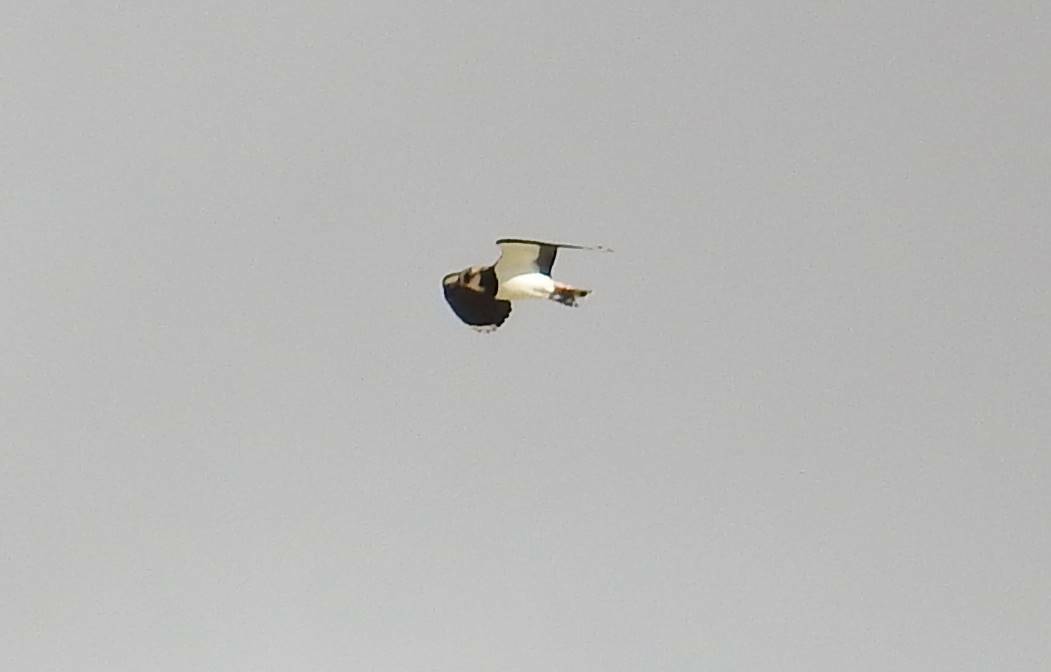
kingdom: Animalia
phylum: Chordata
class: Aves
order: Charadriiformes
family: Charadriidae
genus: Vanellus
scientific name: Vanellus vanellus
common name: Northern lapwing
